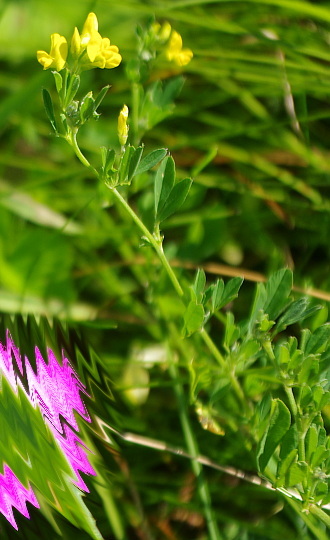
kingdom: Plantae
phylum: Tracheophyta
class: Magnoliopsida
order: Fabales
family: Fabaceae
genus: Medicago
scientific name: Medicago falcata
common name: Sickle medick
